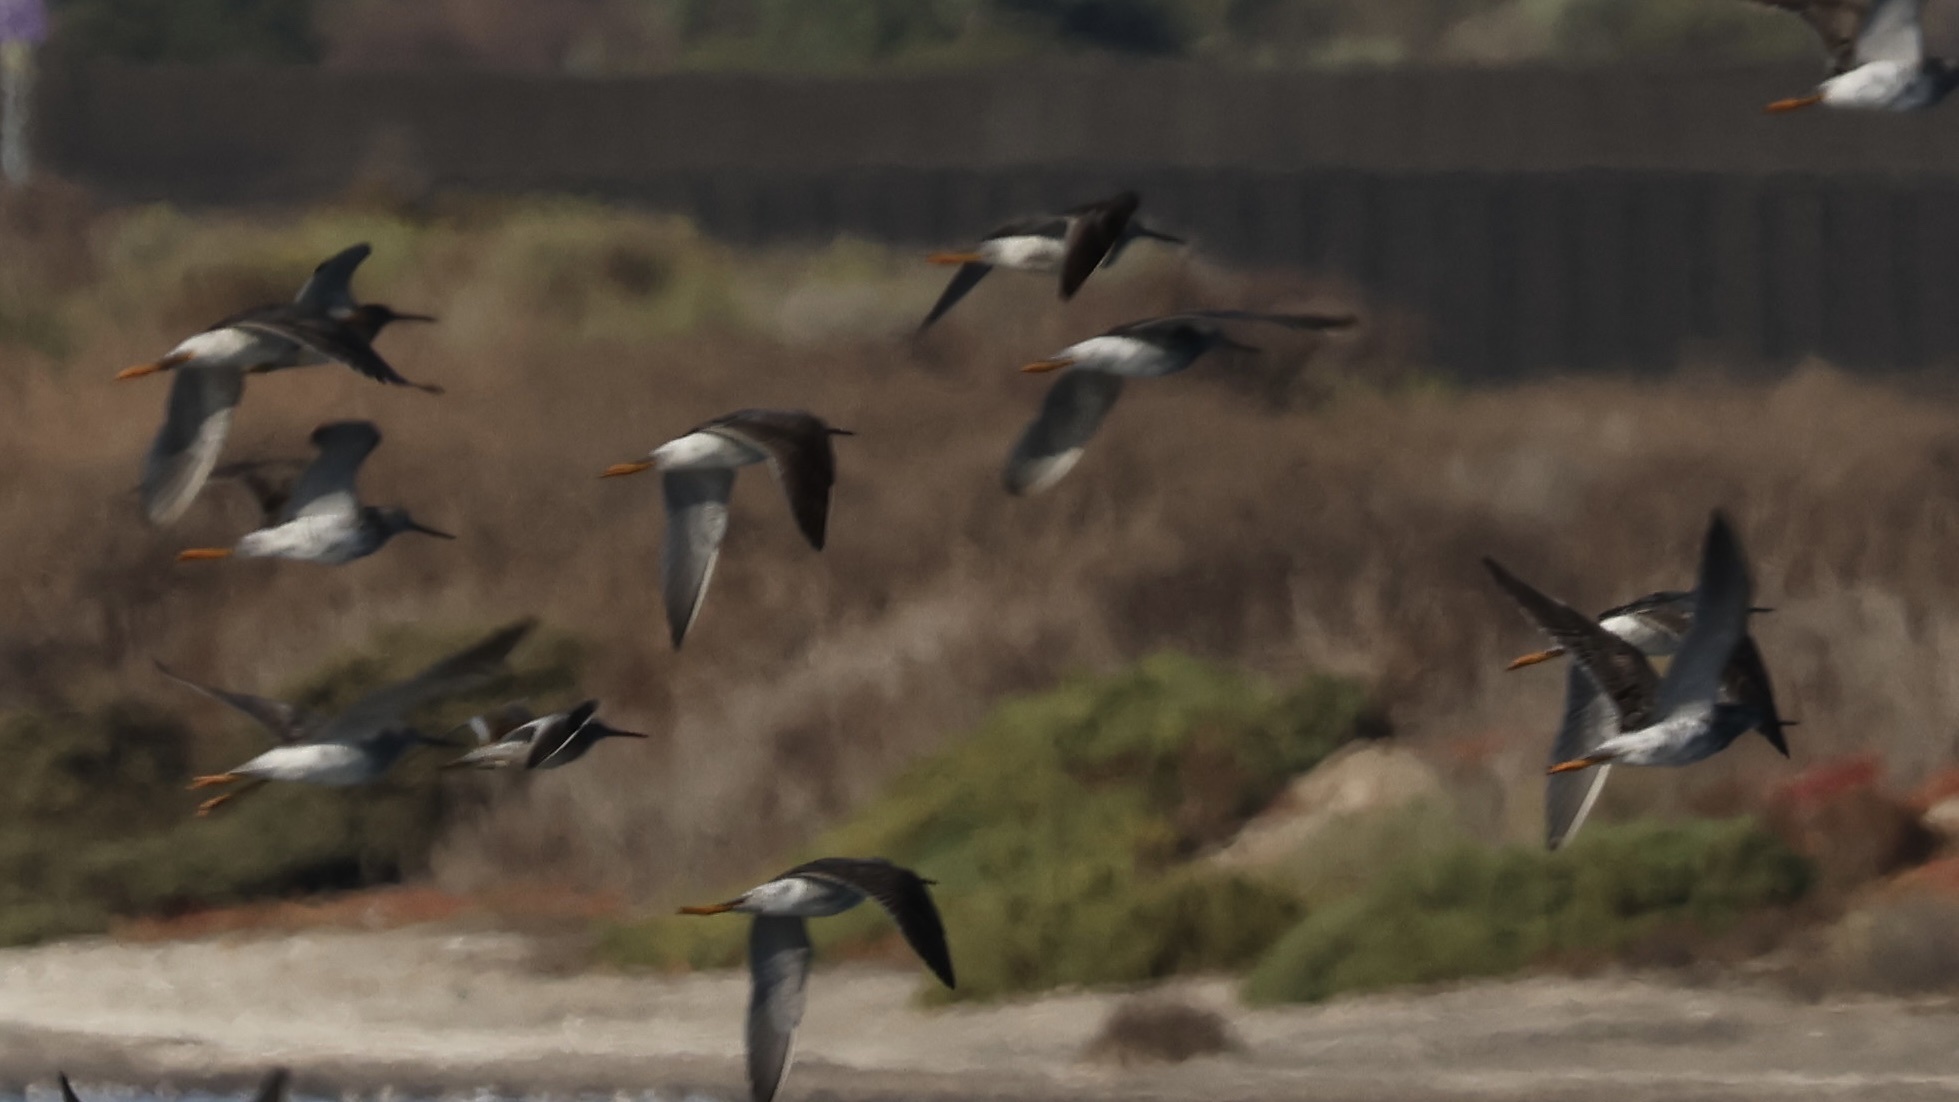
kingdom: Animalia
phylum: Chordata
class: Aves
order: Charadriiformes
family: Scolopacidae
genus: Tringa
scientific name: Tringa melanoleuca
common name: Greater yellowlegs
